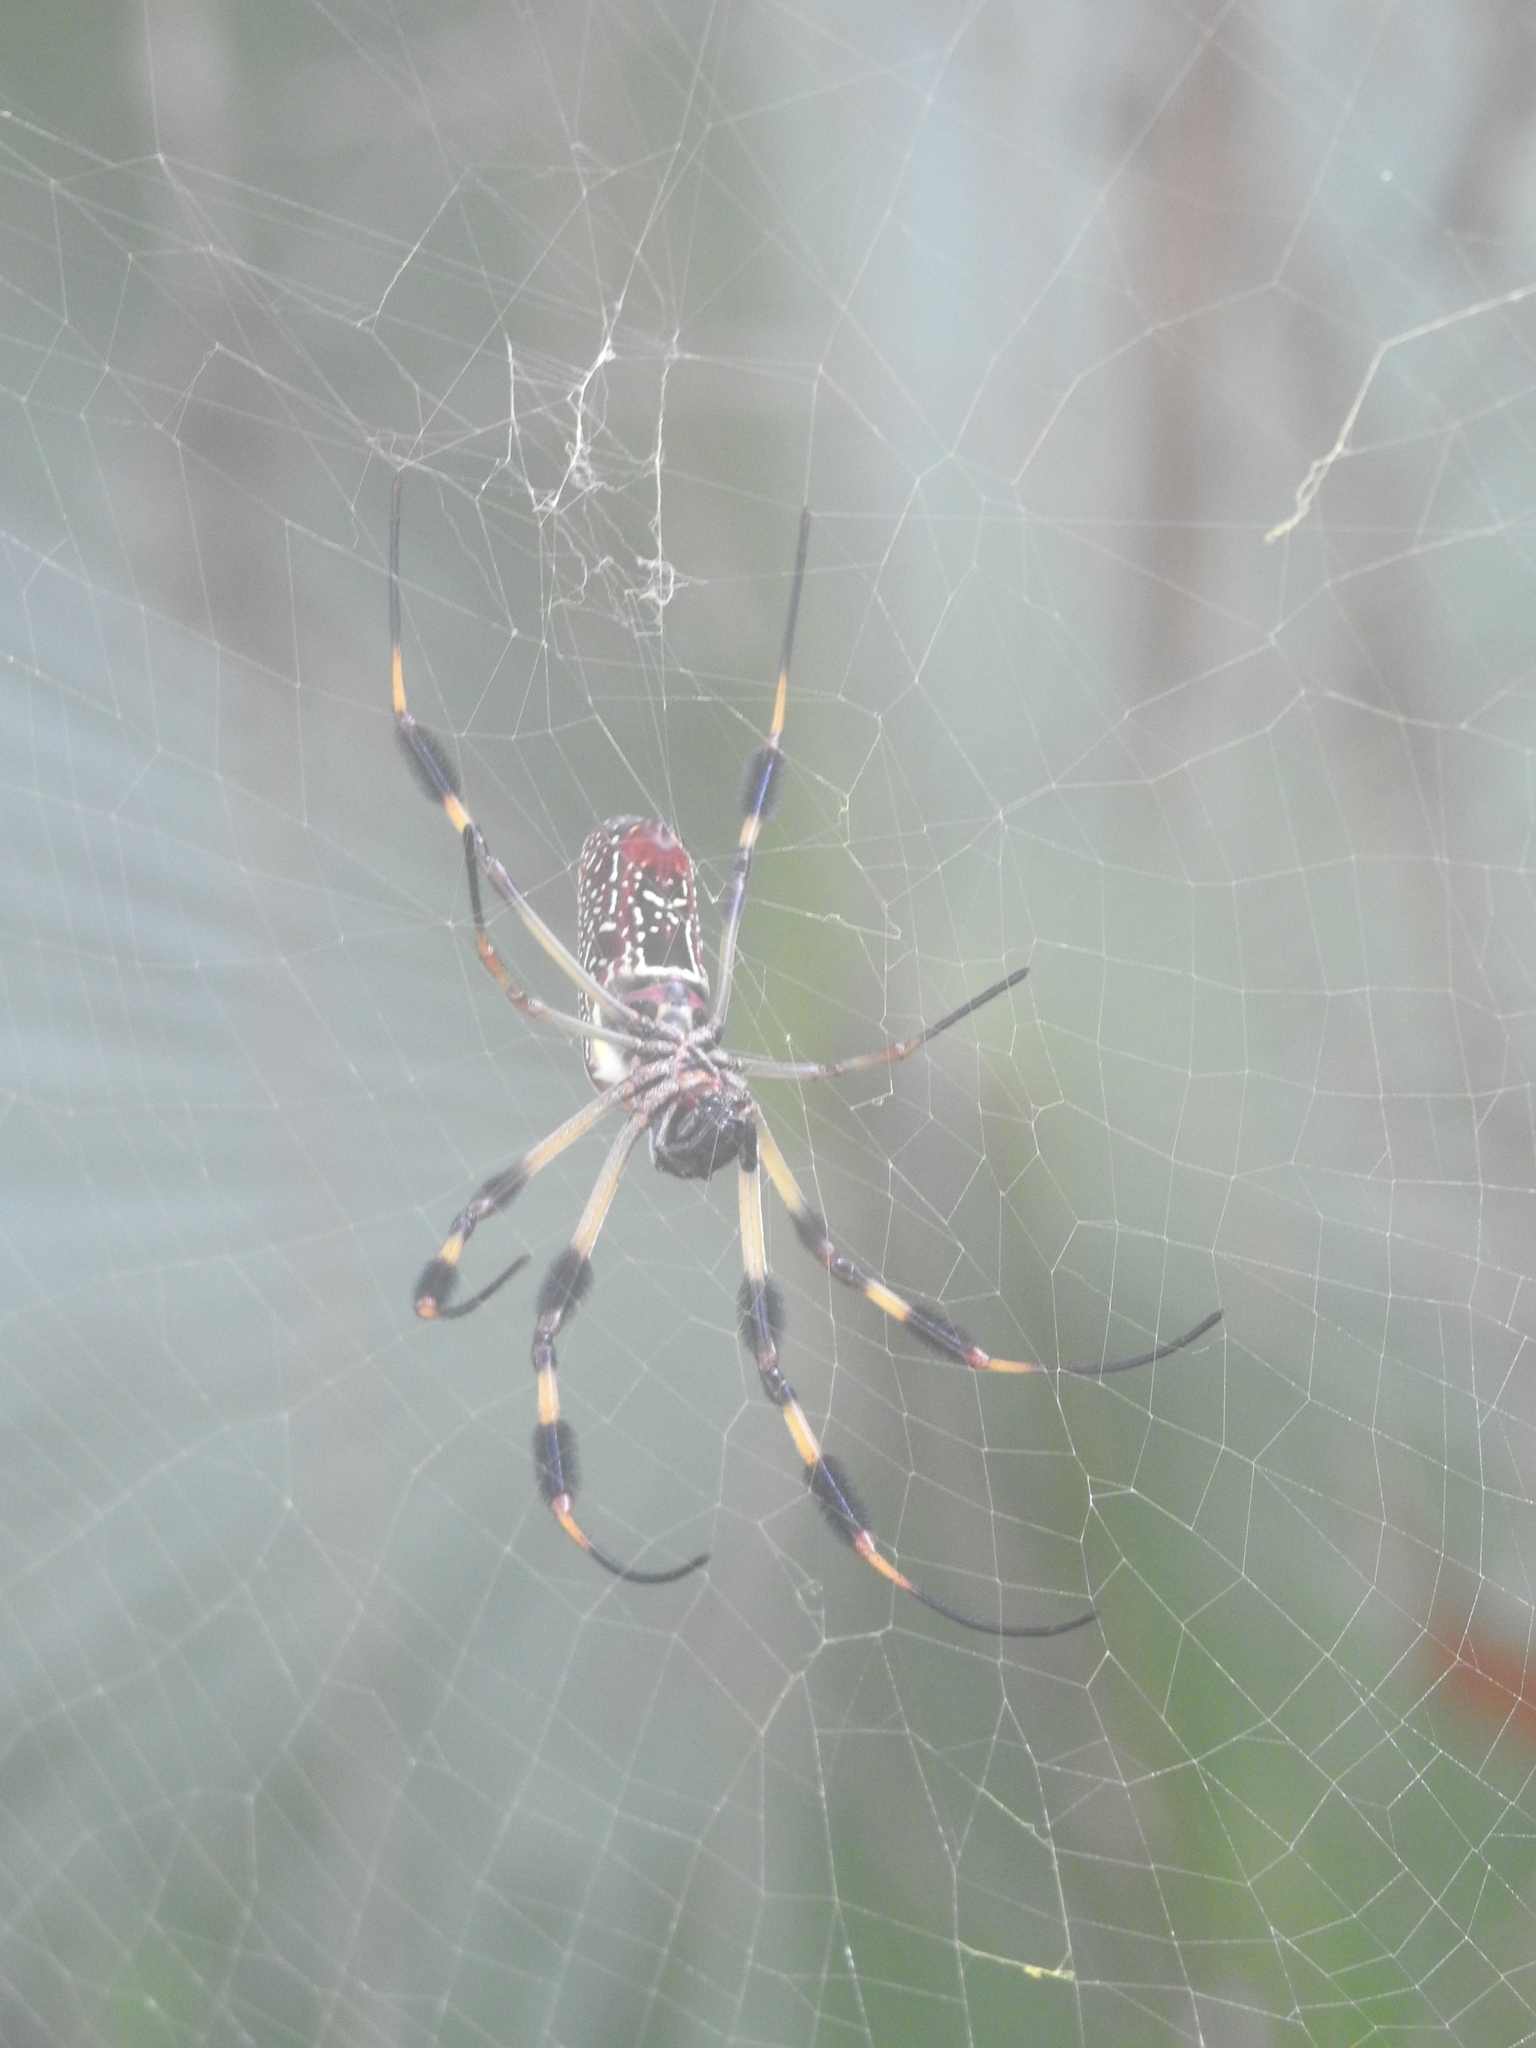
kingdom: Animalia
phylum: Arthropoda
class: Arachnida
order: Araneae
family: Araneidae
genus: Trichonephila
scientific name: Trichonephila clavipes
